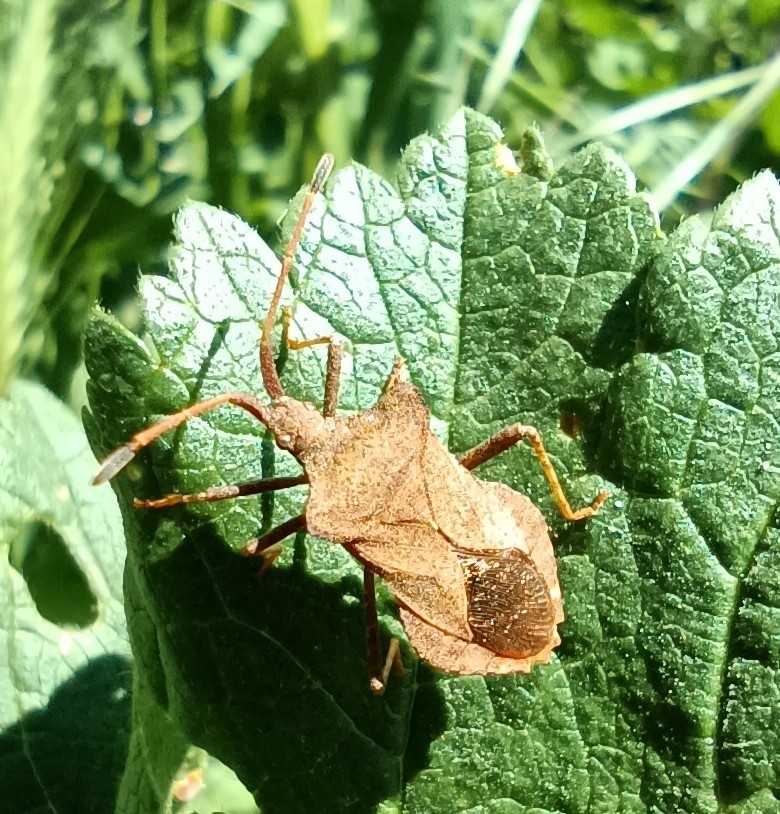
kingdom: Animalia
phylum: Arthropoda
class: Insecta
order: Hemiptera
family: Coreidae
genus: Coreus
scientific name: Coreus marginatus
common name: Dock bug
